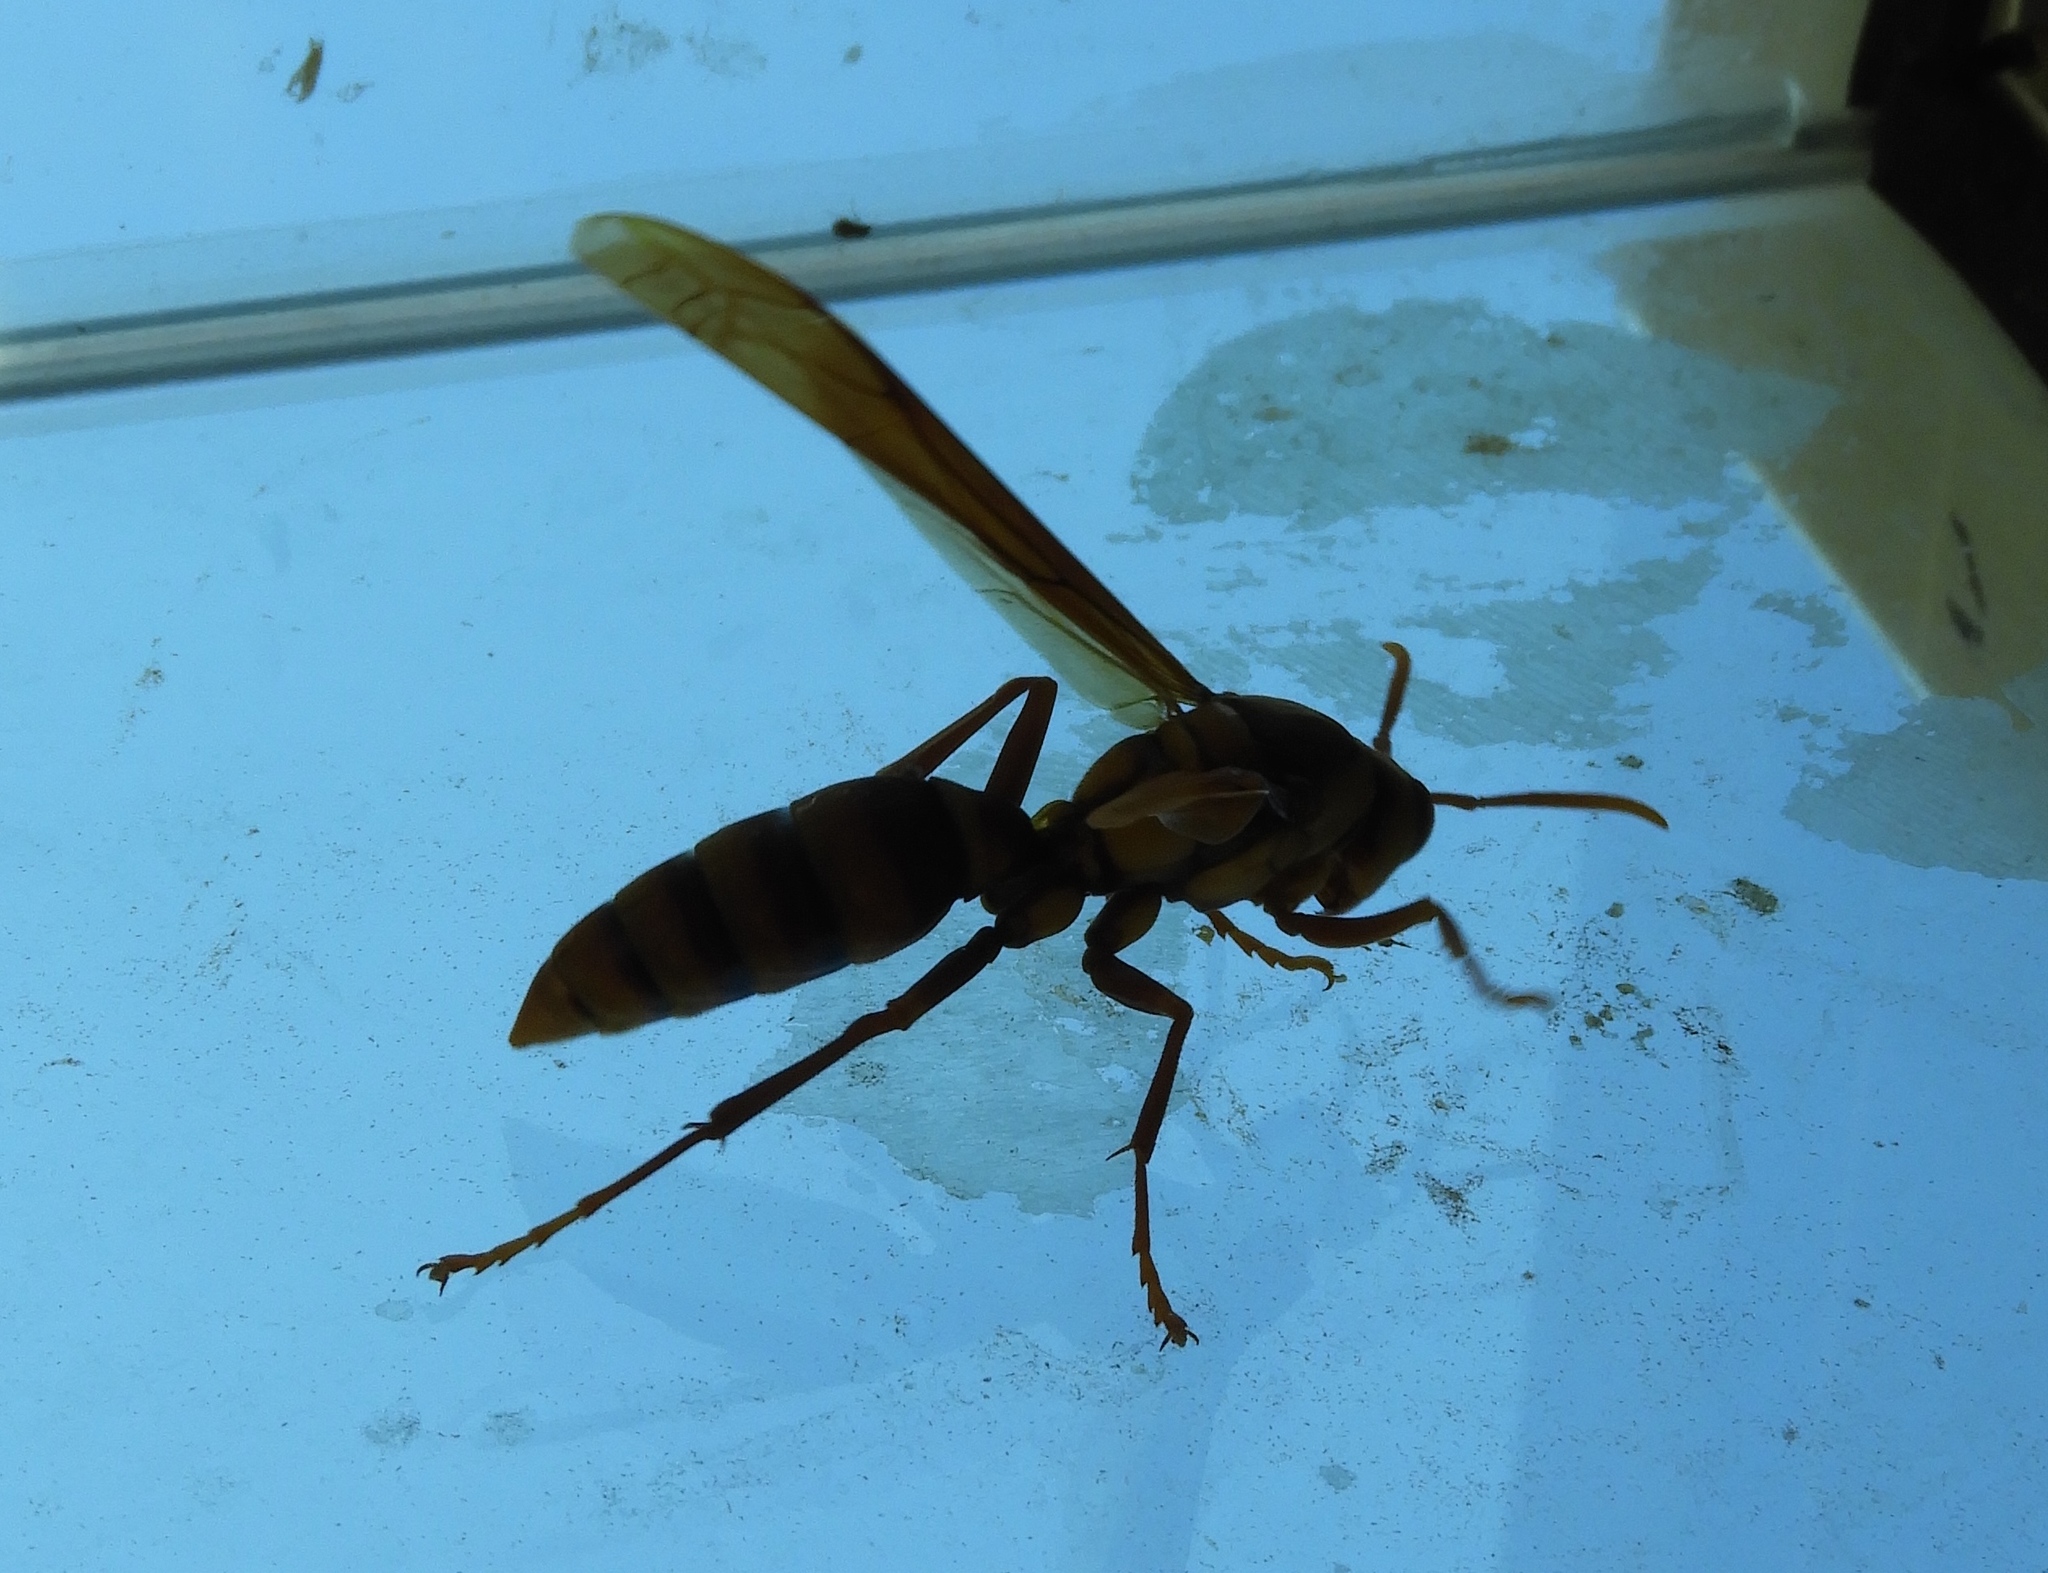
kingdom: Animalia
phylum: Arthropoda
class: Insecta
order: Hymenoptera
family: Eumenidae
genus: Polistes
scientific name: Polistes carnifex
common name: Paper wasp
